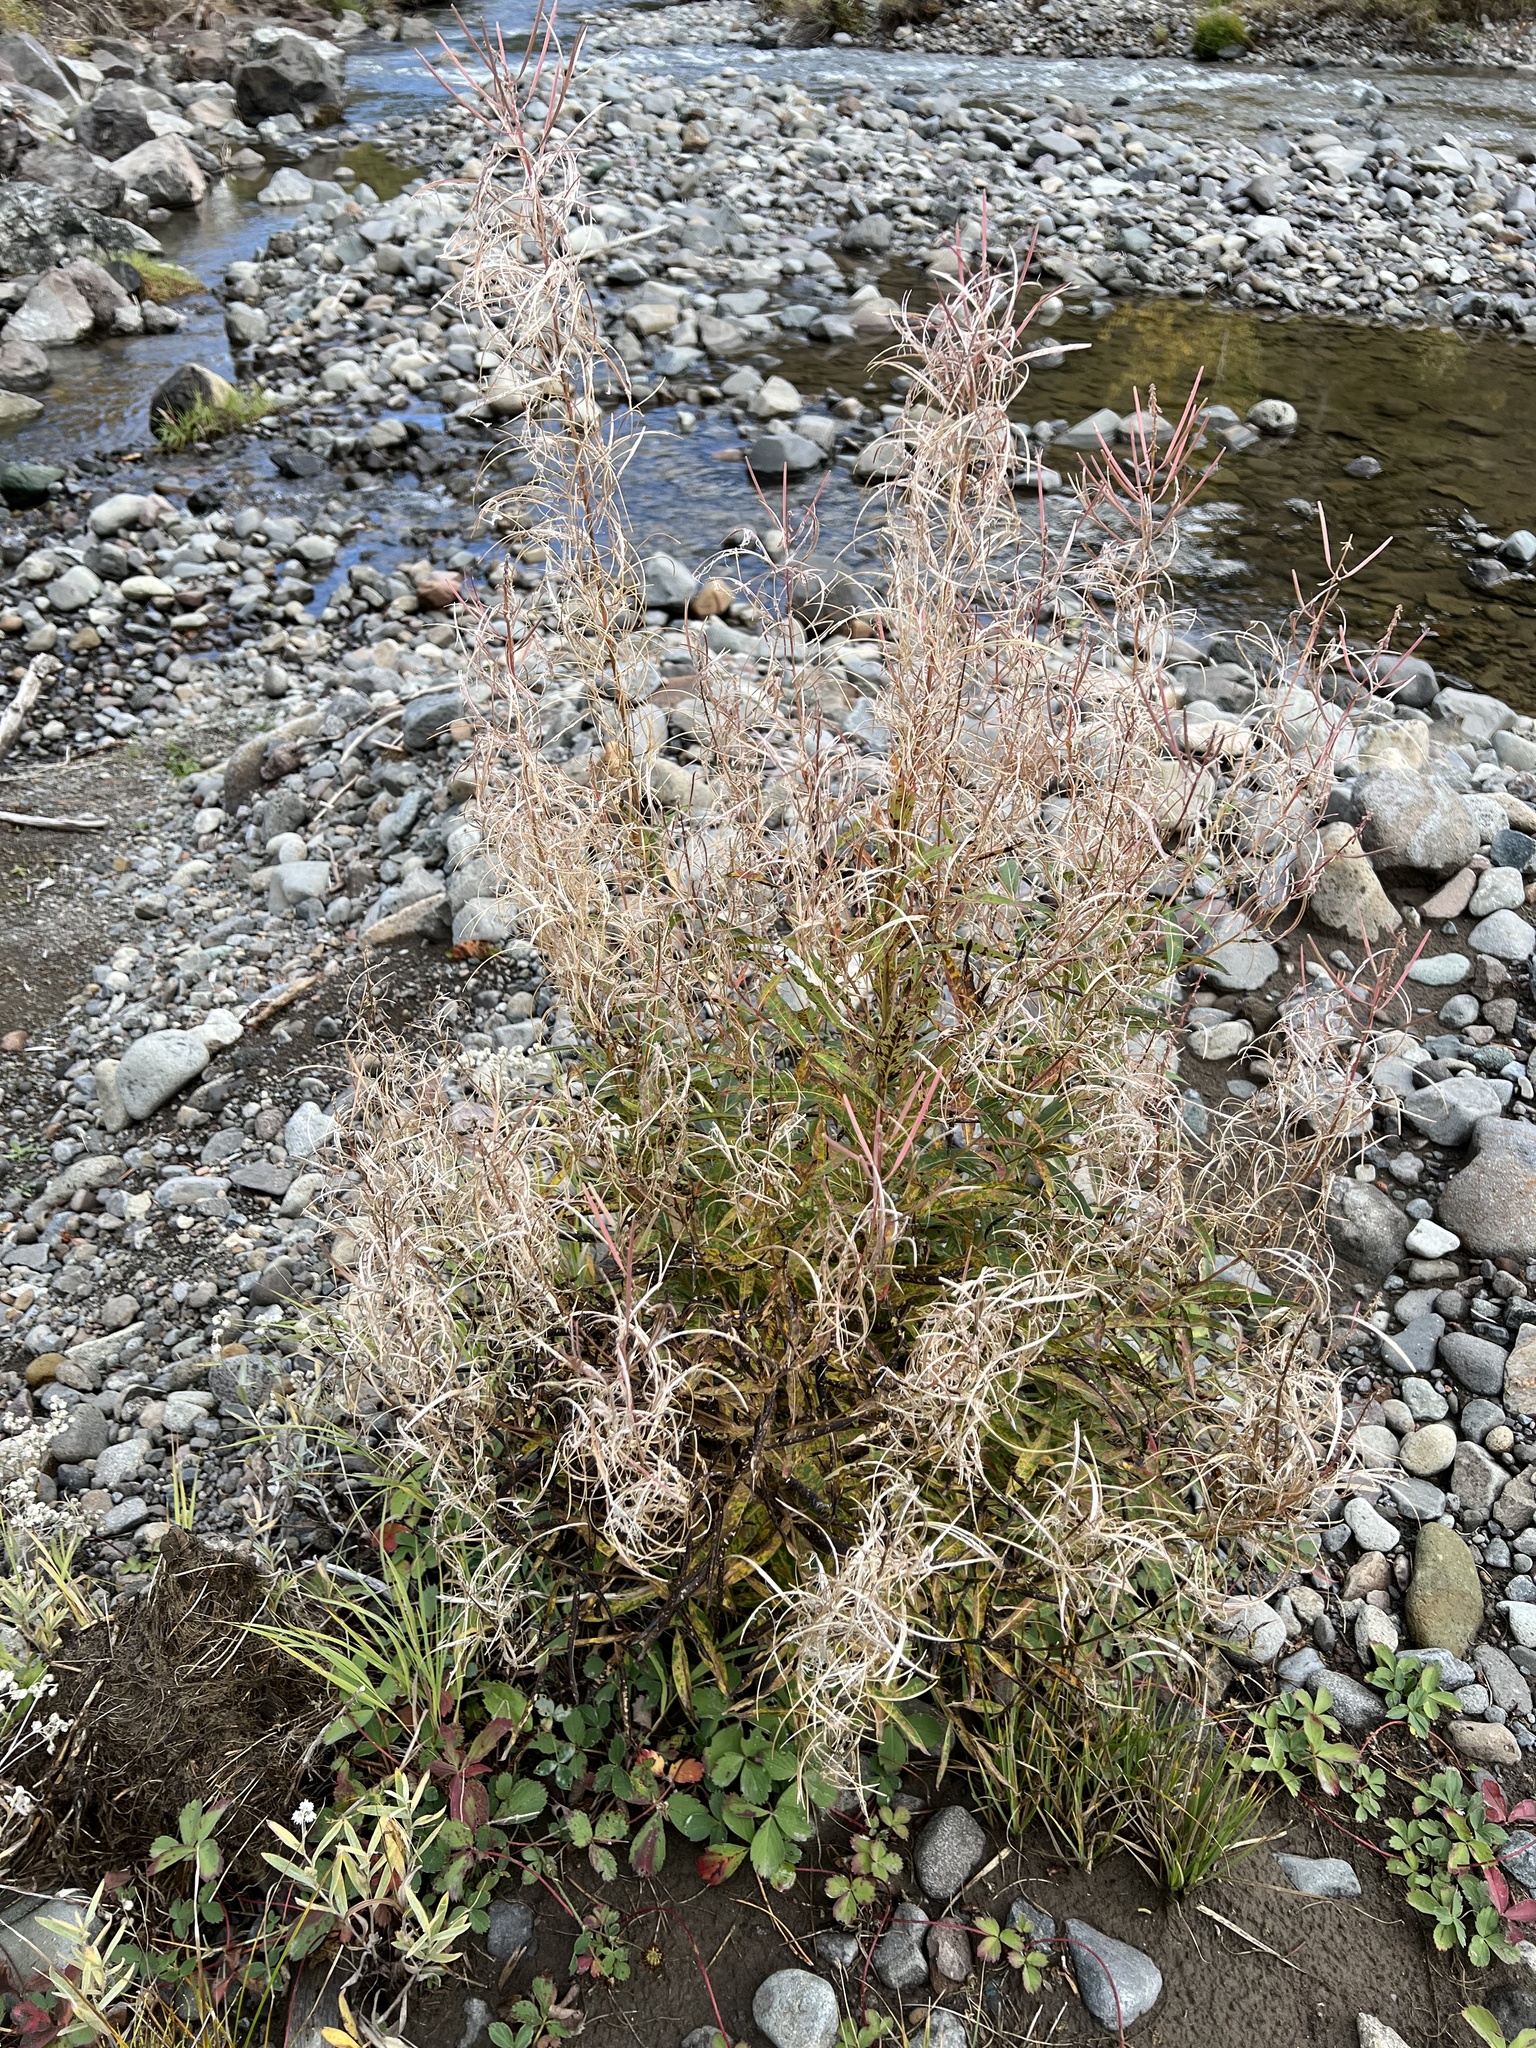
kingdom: Plantae
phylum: Tracheophyta
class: Magnoliopsida
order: Myrtales
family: Onagraceae
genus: Chamaenerion
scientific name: Chamaenerion angustifolium
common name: Fireweed
